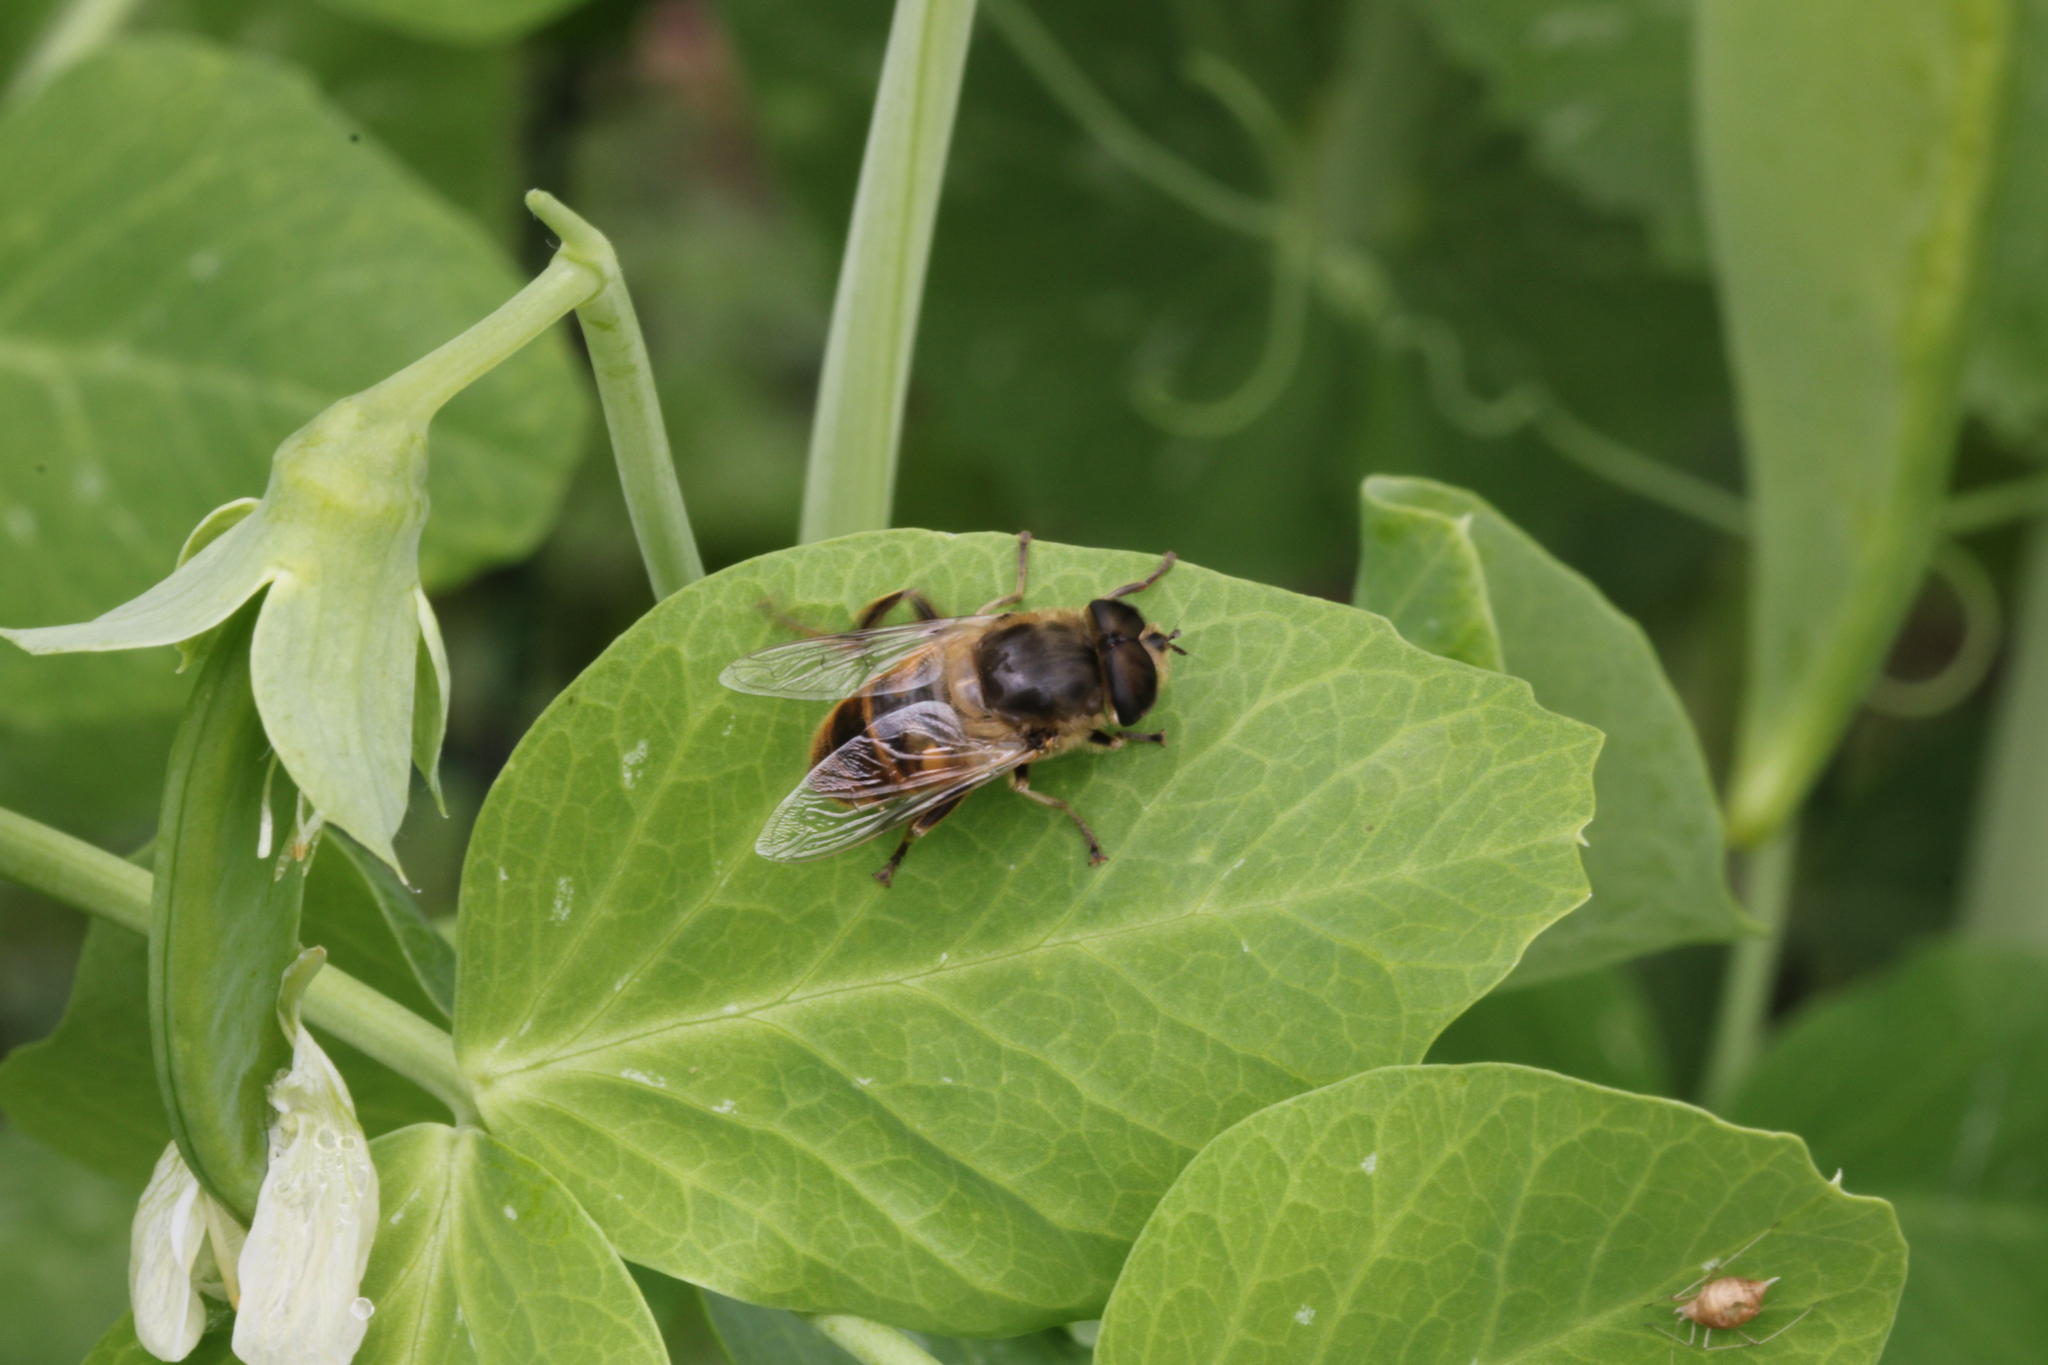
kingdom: Animalia
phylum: Arthropoda
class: Insecta
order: Diptera
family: Syrphidae
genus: Eristalis
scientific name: Eristalis tenax
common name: Drone fly
